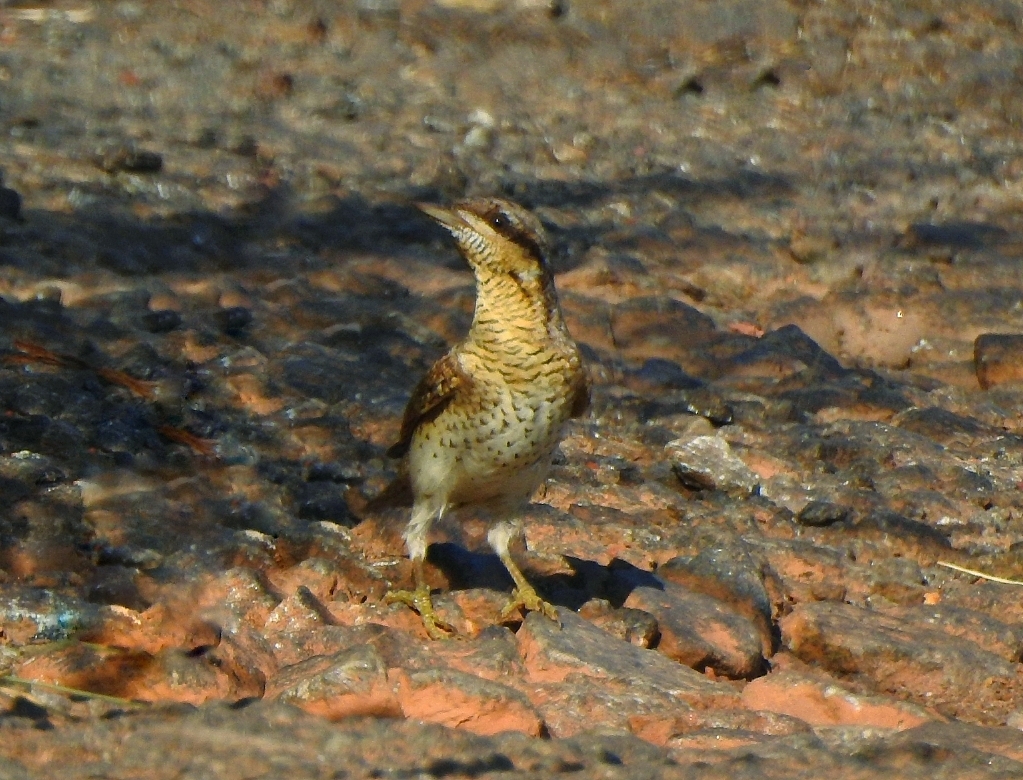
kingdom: Animalia
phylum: Chordata
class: Aves
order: Piciformes
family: Picidae
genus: Jynx
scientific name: Jynx torquilla
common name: Eurasian wryneck
